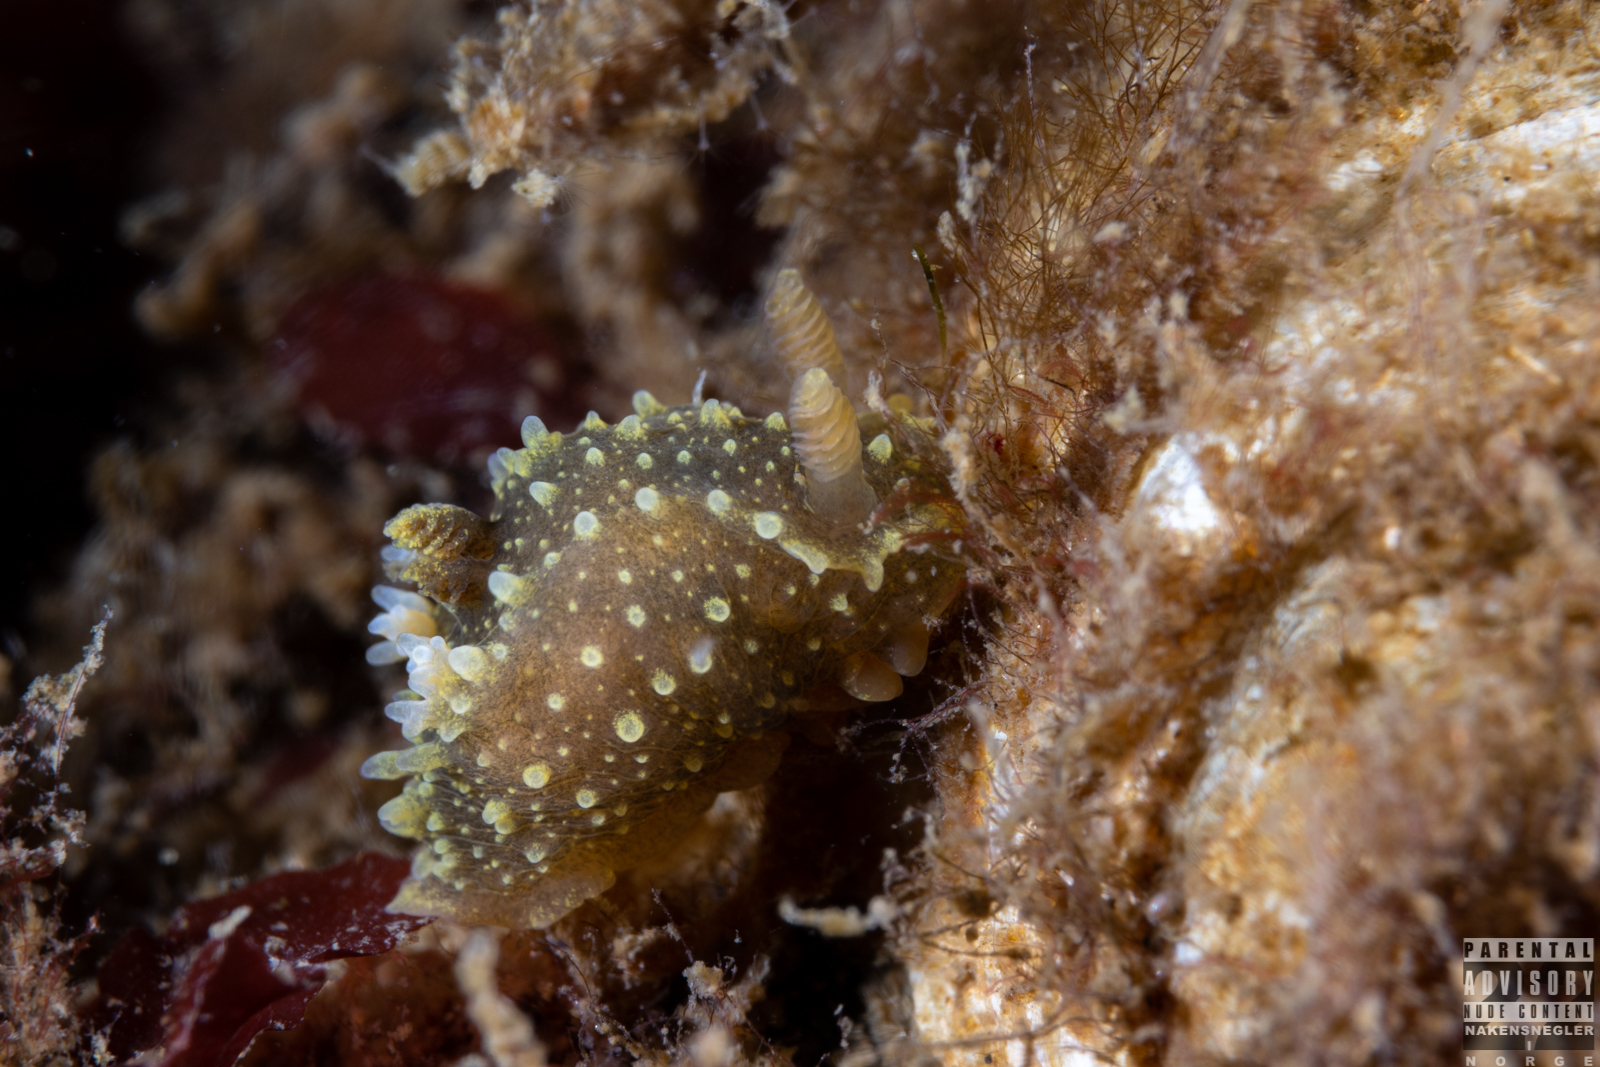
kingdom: Animalia
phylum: Mollusca
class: Gastropoda
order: Nudibranchia
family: Polyceridae
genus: Palio
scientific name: Palio dubia
